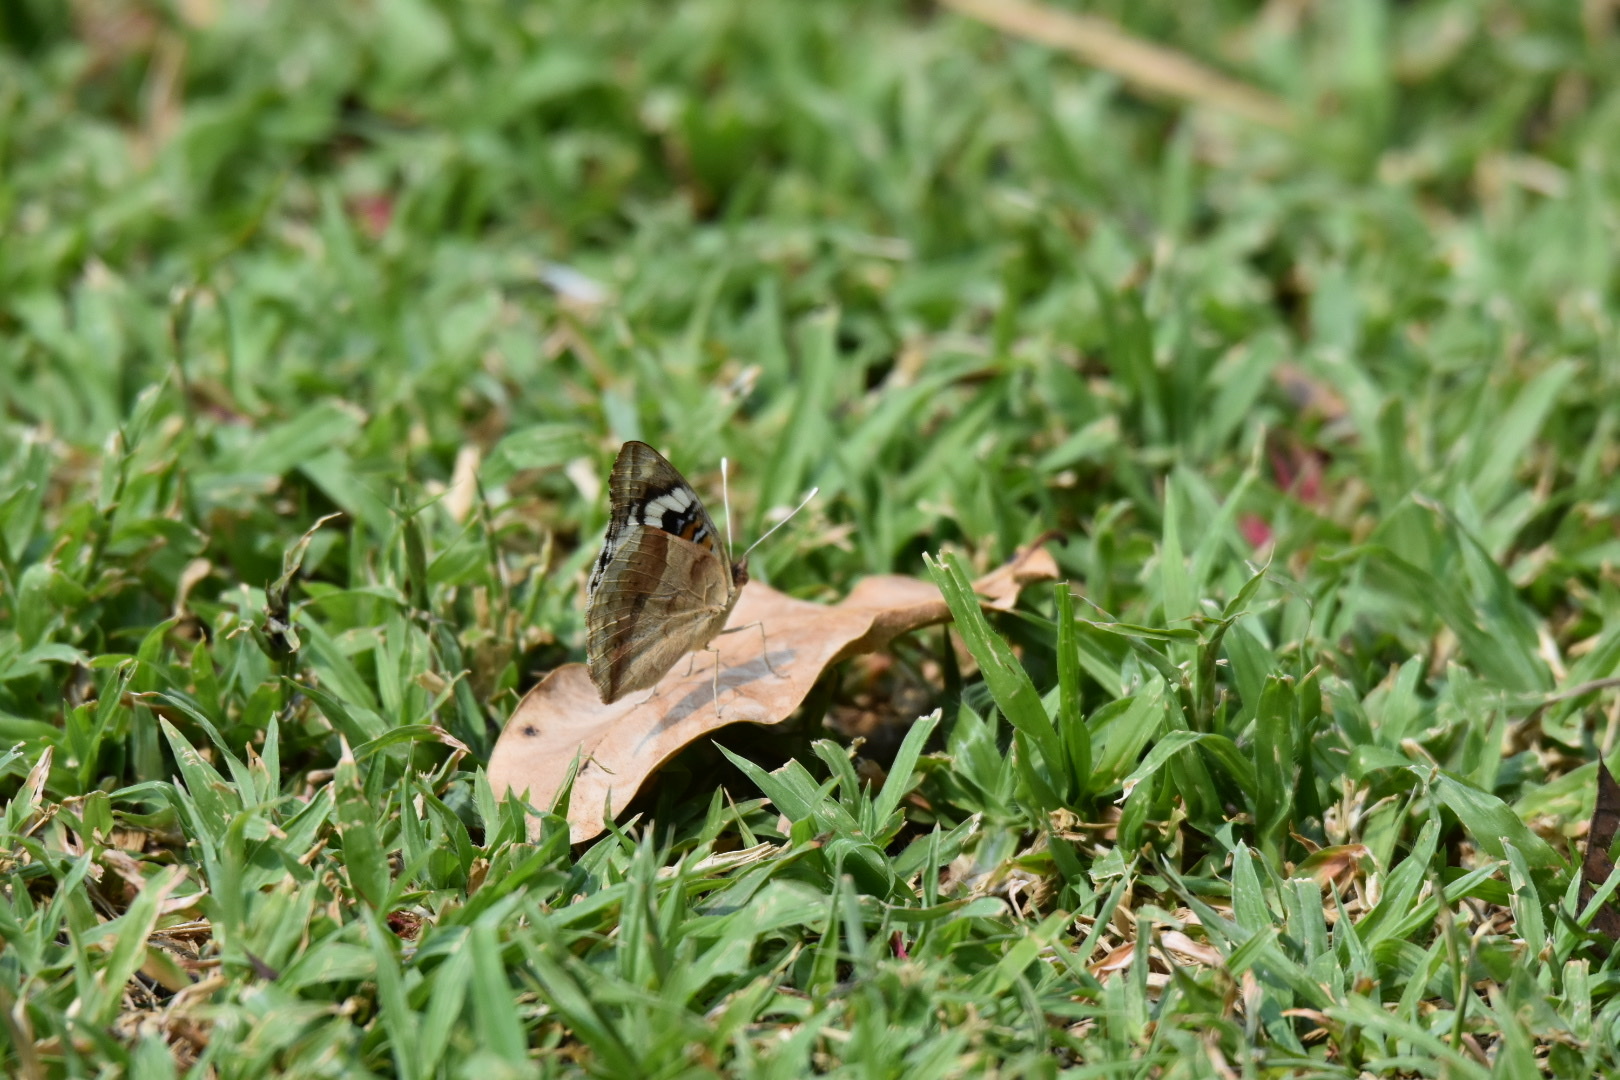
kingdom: Animalia
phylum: Arthropoda
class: Insecta
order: Lepidoptera
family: Nymphalidae
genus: Junonia
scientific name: Junonia oenone
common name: Dark blue pansy
